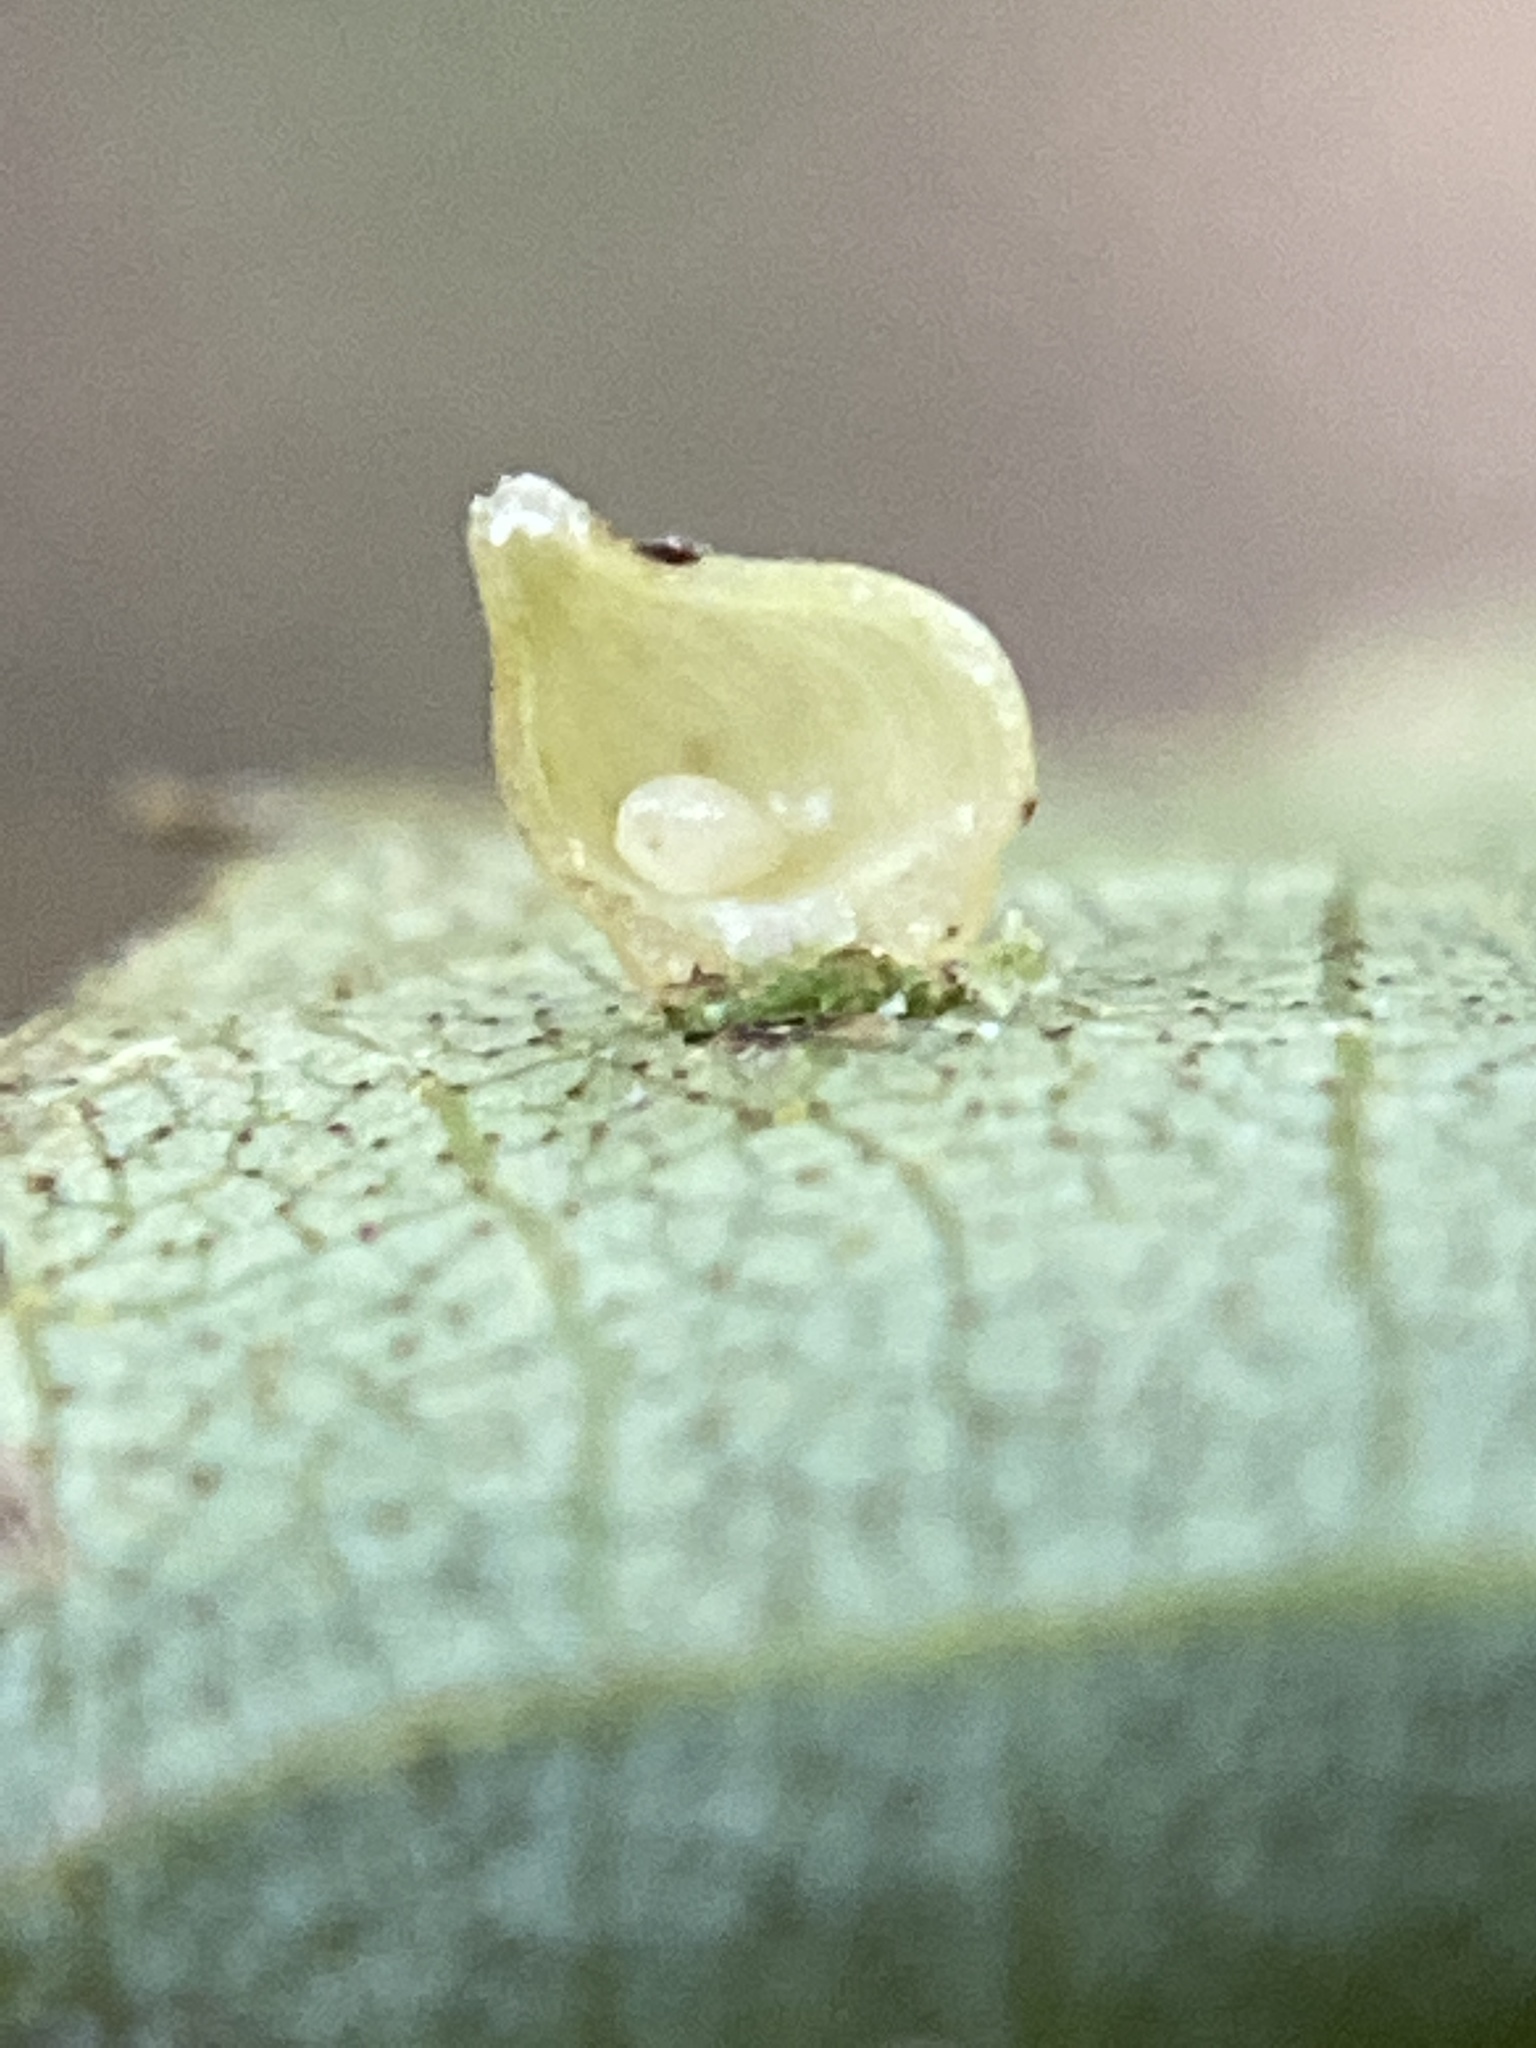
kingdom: Animalia
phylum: Arthropoda
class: Insecta
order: Diptera
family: Cecidomyiidae
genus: Caryomyia
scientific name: Caryomyia shmoo
